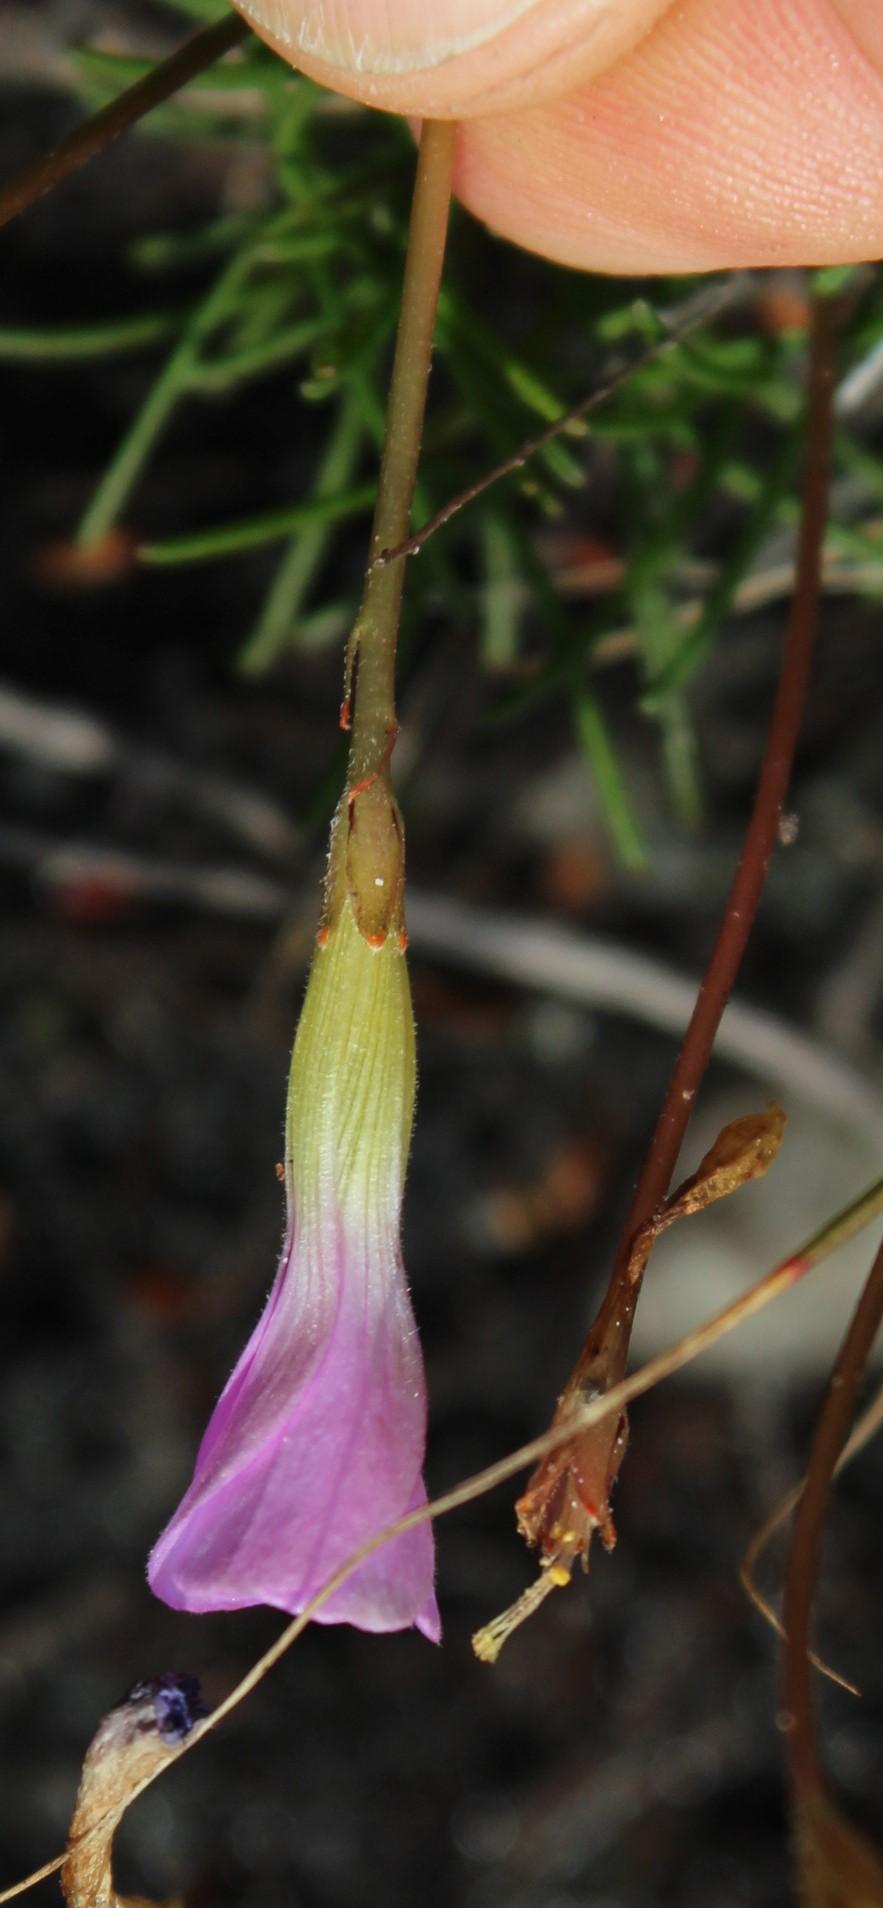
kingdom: Plantae
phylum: Tracheophyta
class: Magnoliopsida
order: Oxalidales
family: Oxalidaceae
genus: Oxalis
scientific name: Oxalis polyphylla
